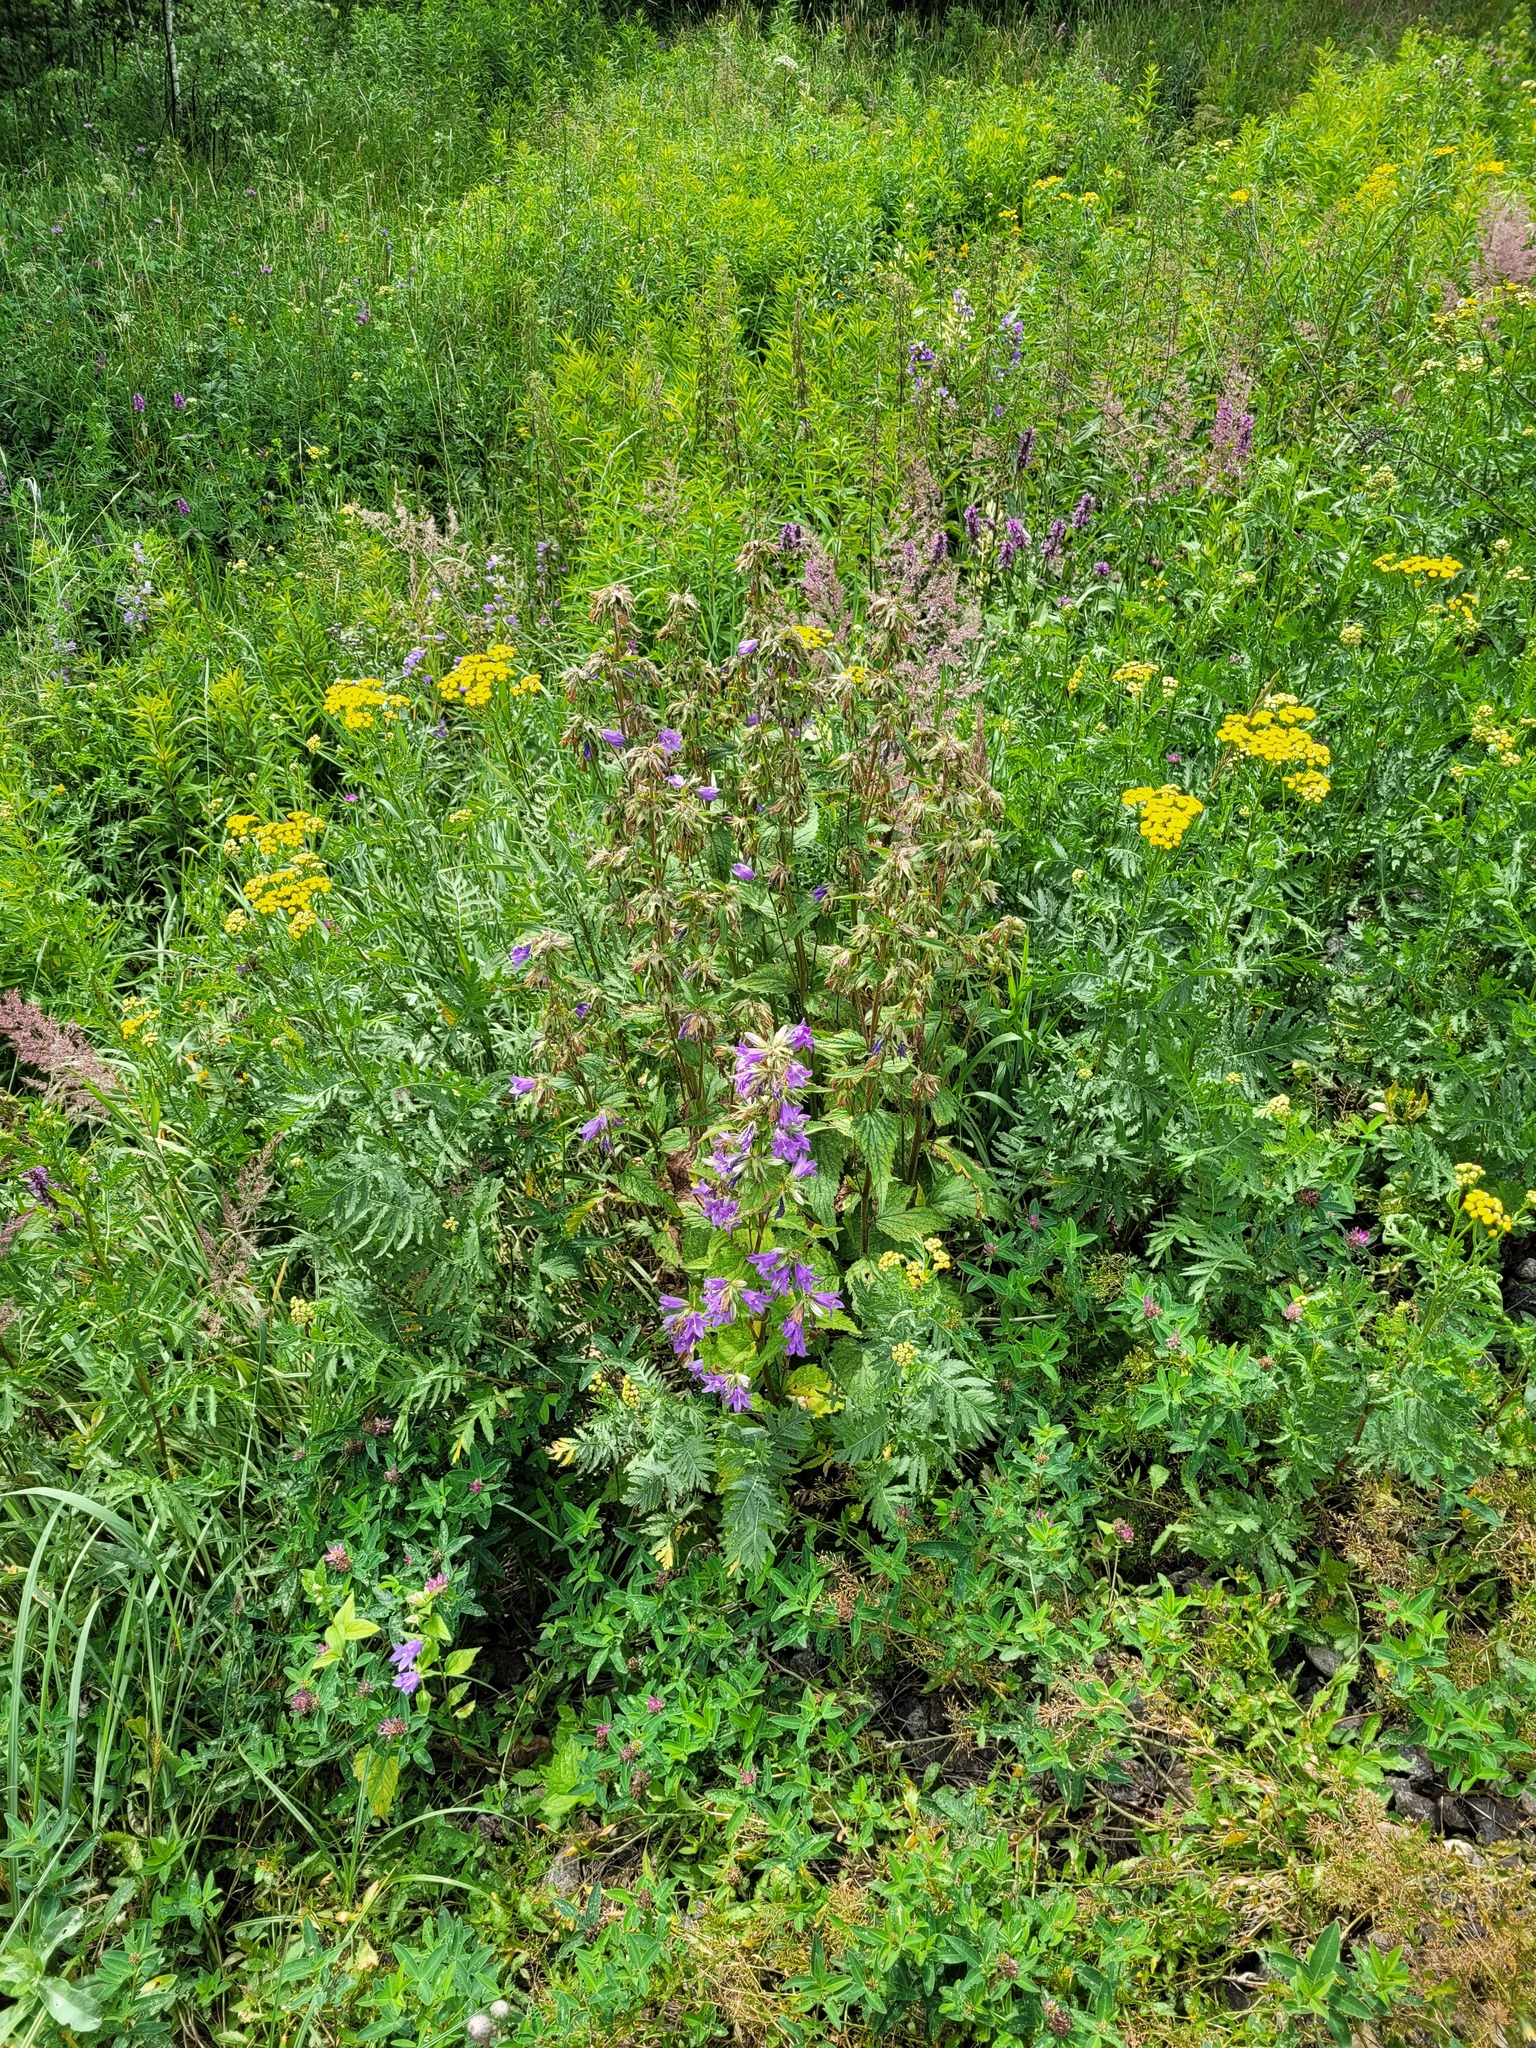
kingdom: Plantae
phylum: Tracheophyta
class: Magnoliopsida
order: Asterales
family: Campanulaceae
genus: Campanula
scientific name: Campanula trachelium
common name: Nettle-leaved bellflower
